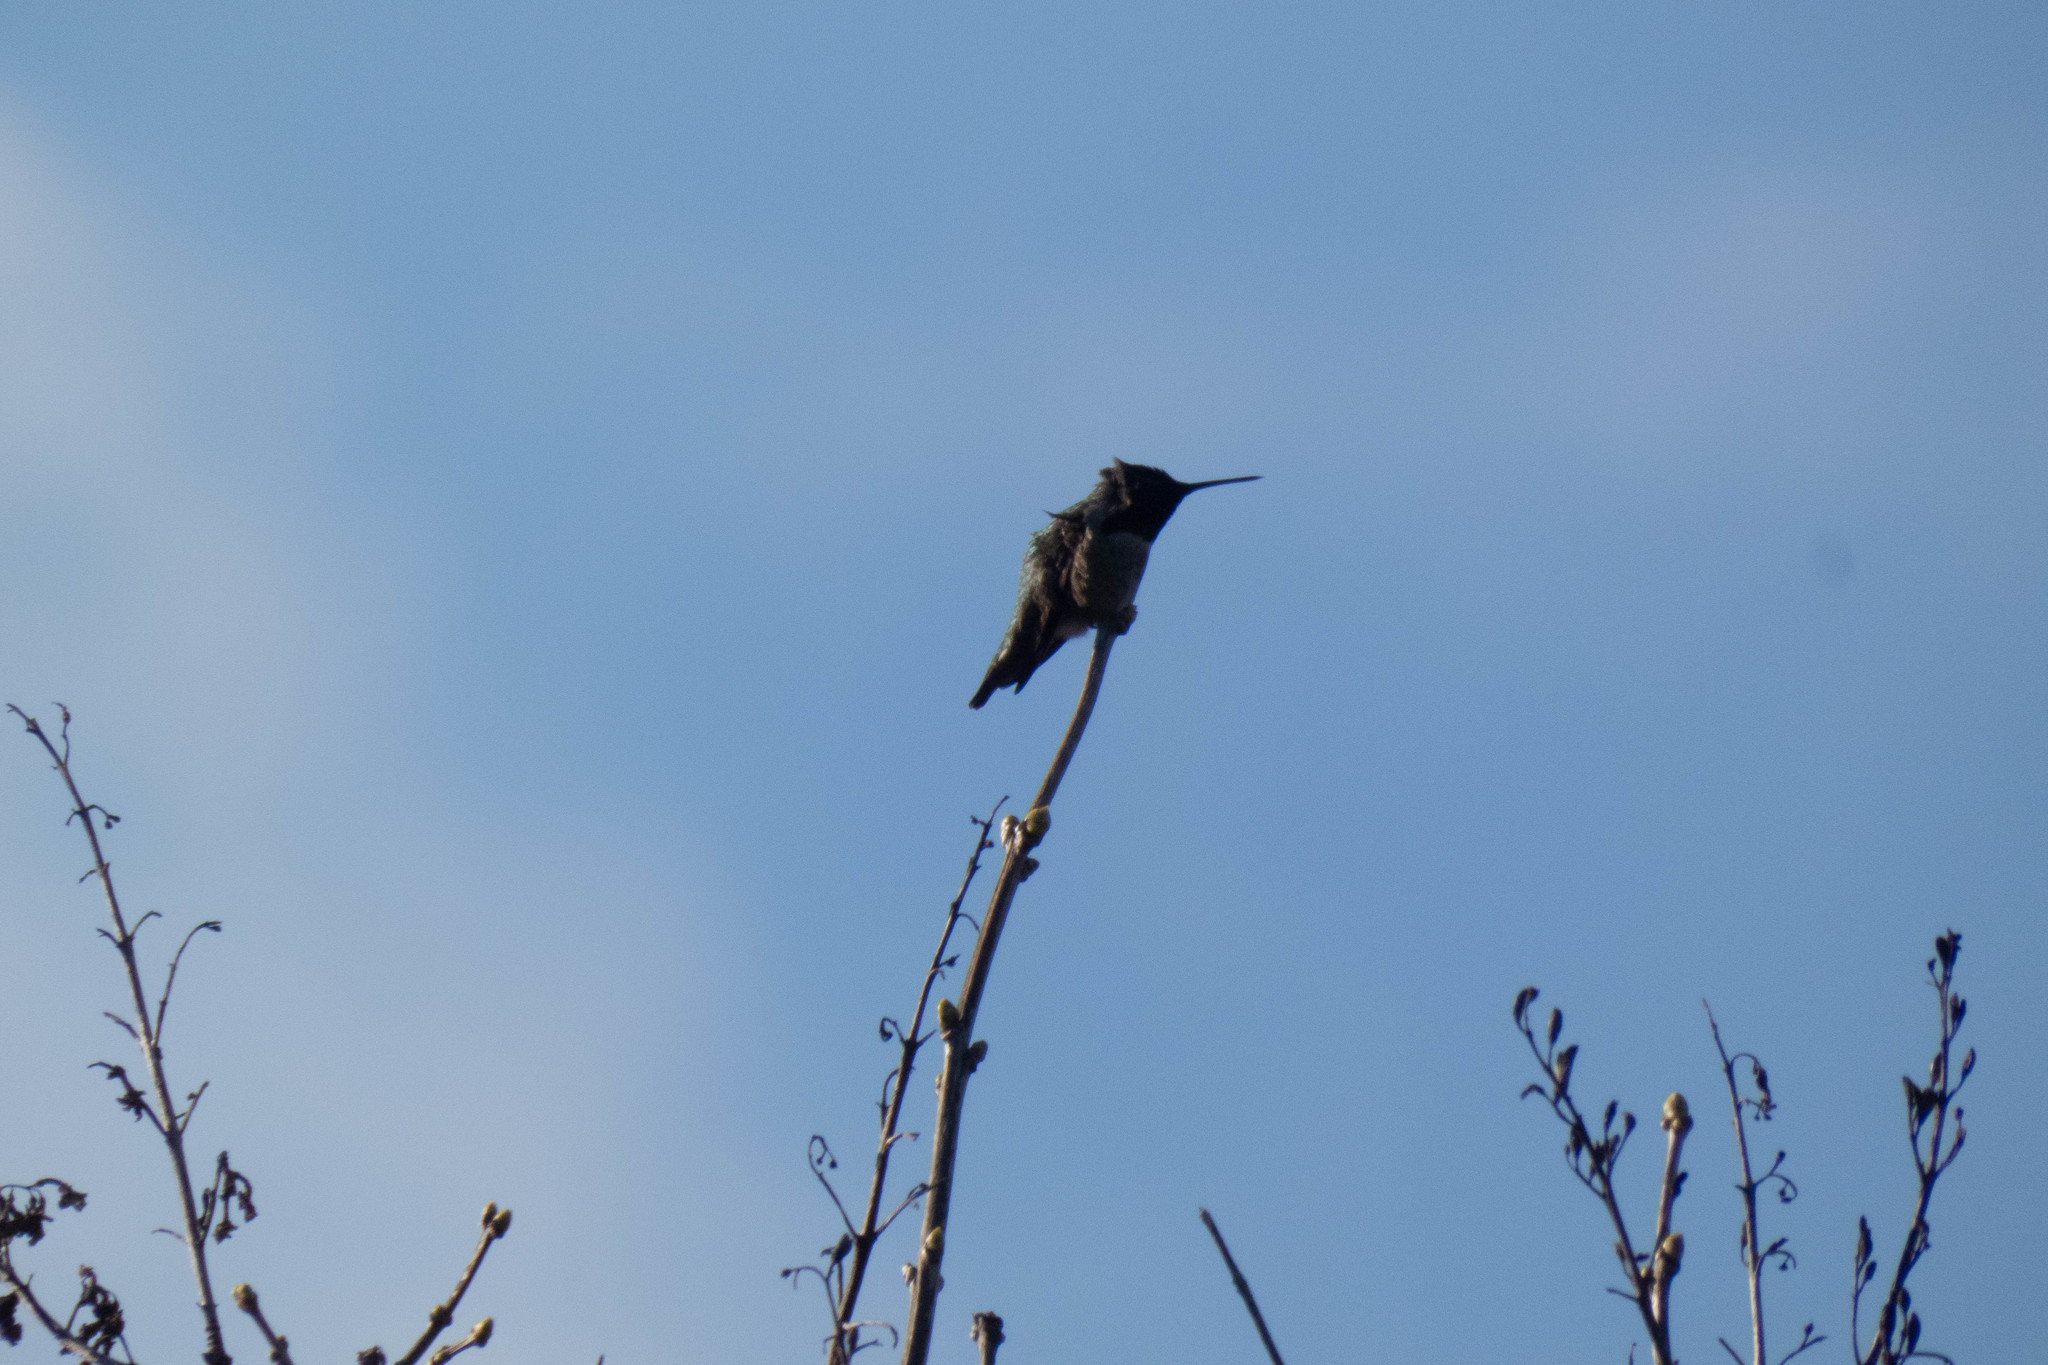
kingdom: Animalia
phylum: Chordata
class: Aves
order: Apodiformes
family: Trochilidae
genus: Calypte
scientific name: Calypte anna
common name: Anna's hummingbird
